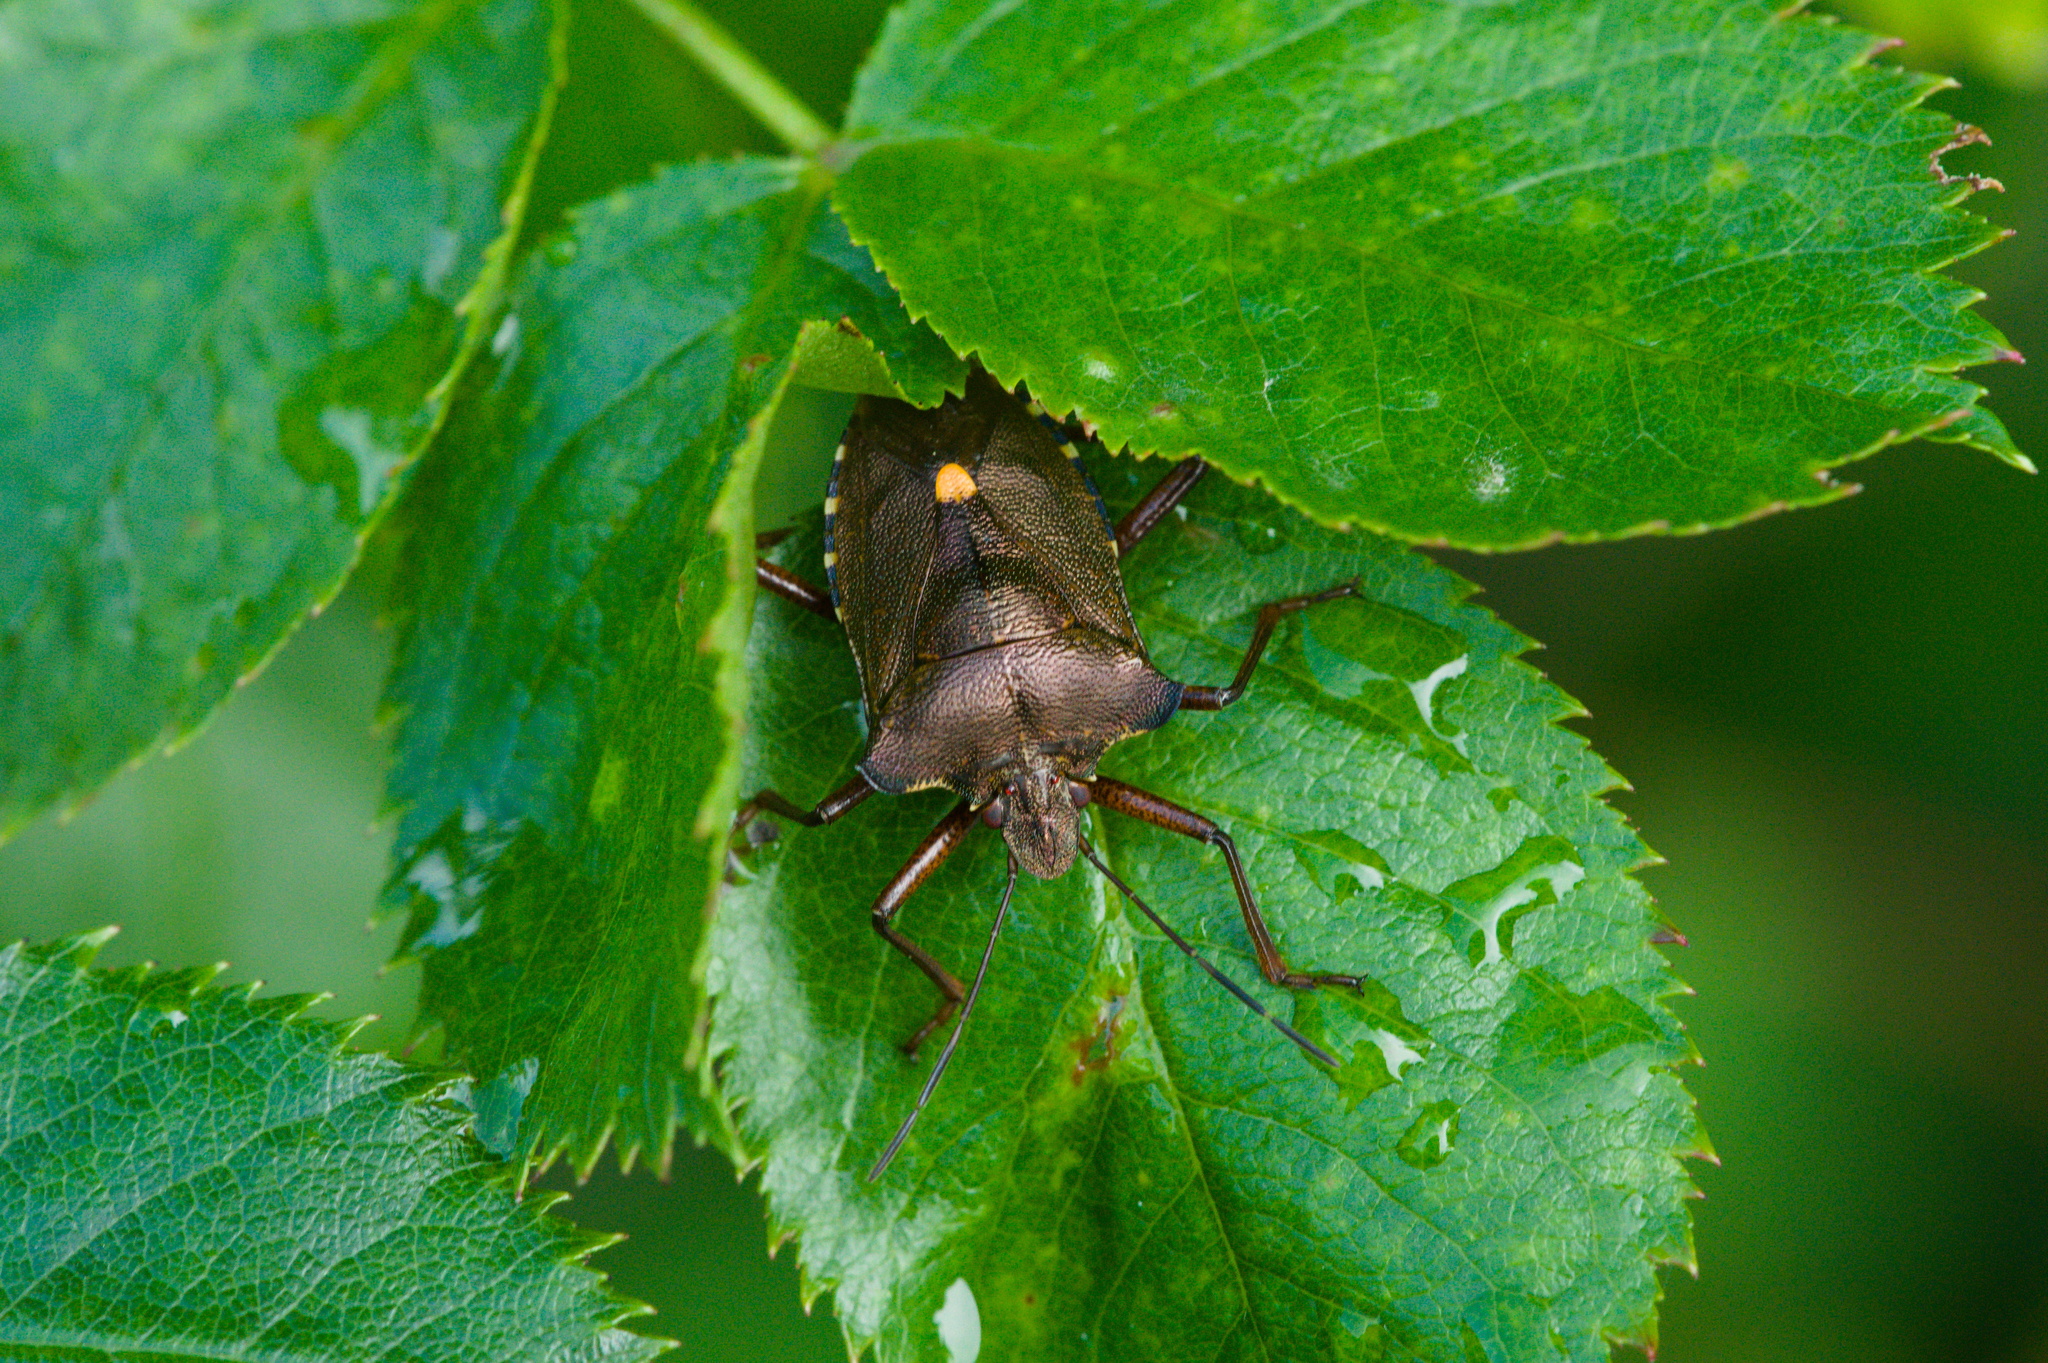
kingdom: Animalia
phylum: Arthropoda
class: Insecta
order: Hemiptera
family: Pentatomidae
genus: Pentatoma
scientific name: Pentatoma rufipes
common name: Forest bug
